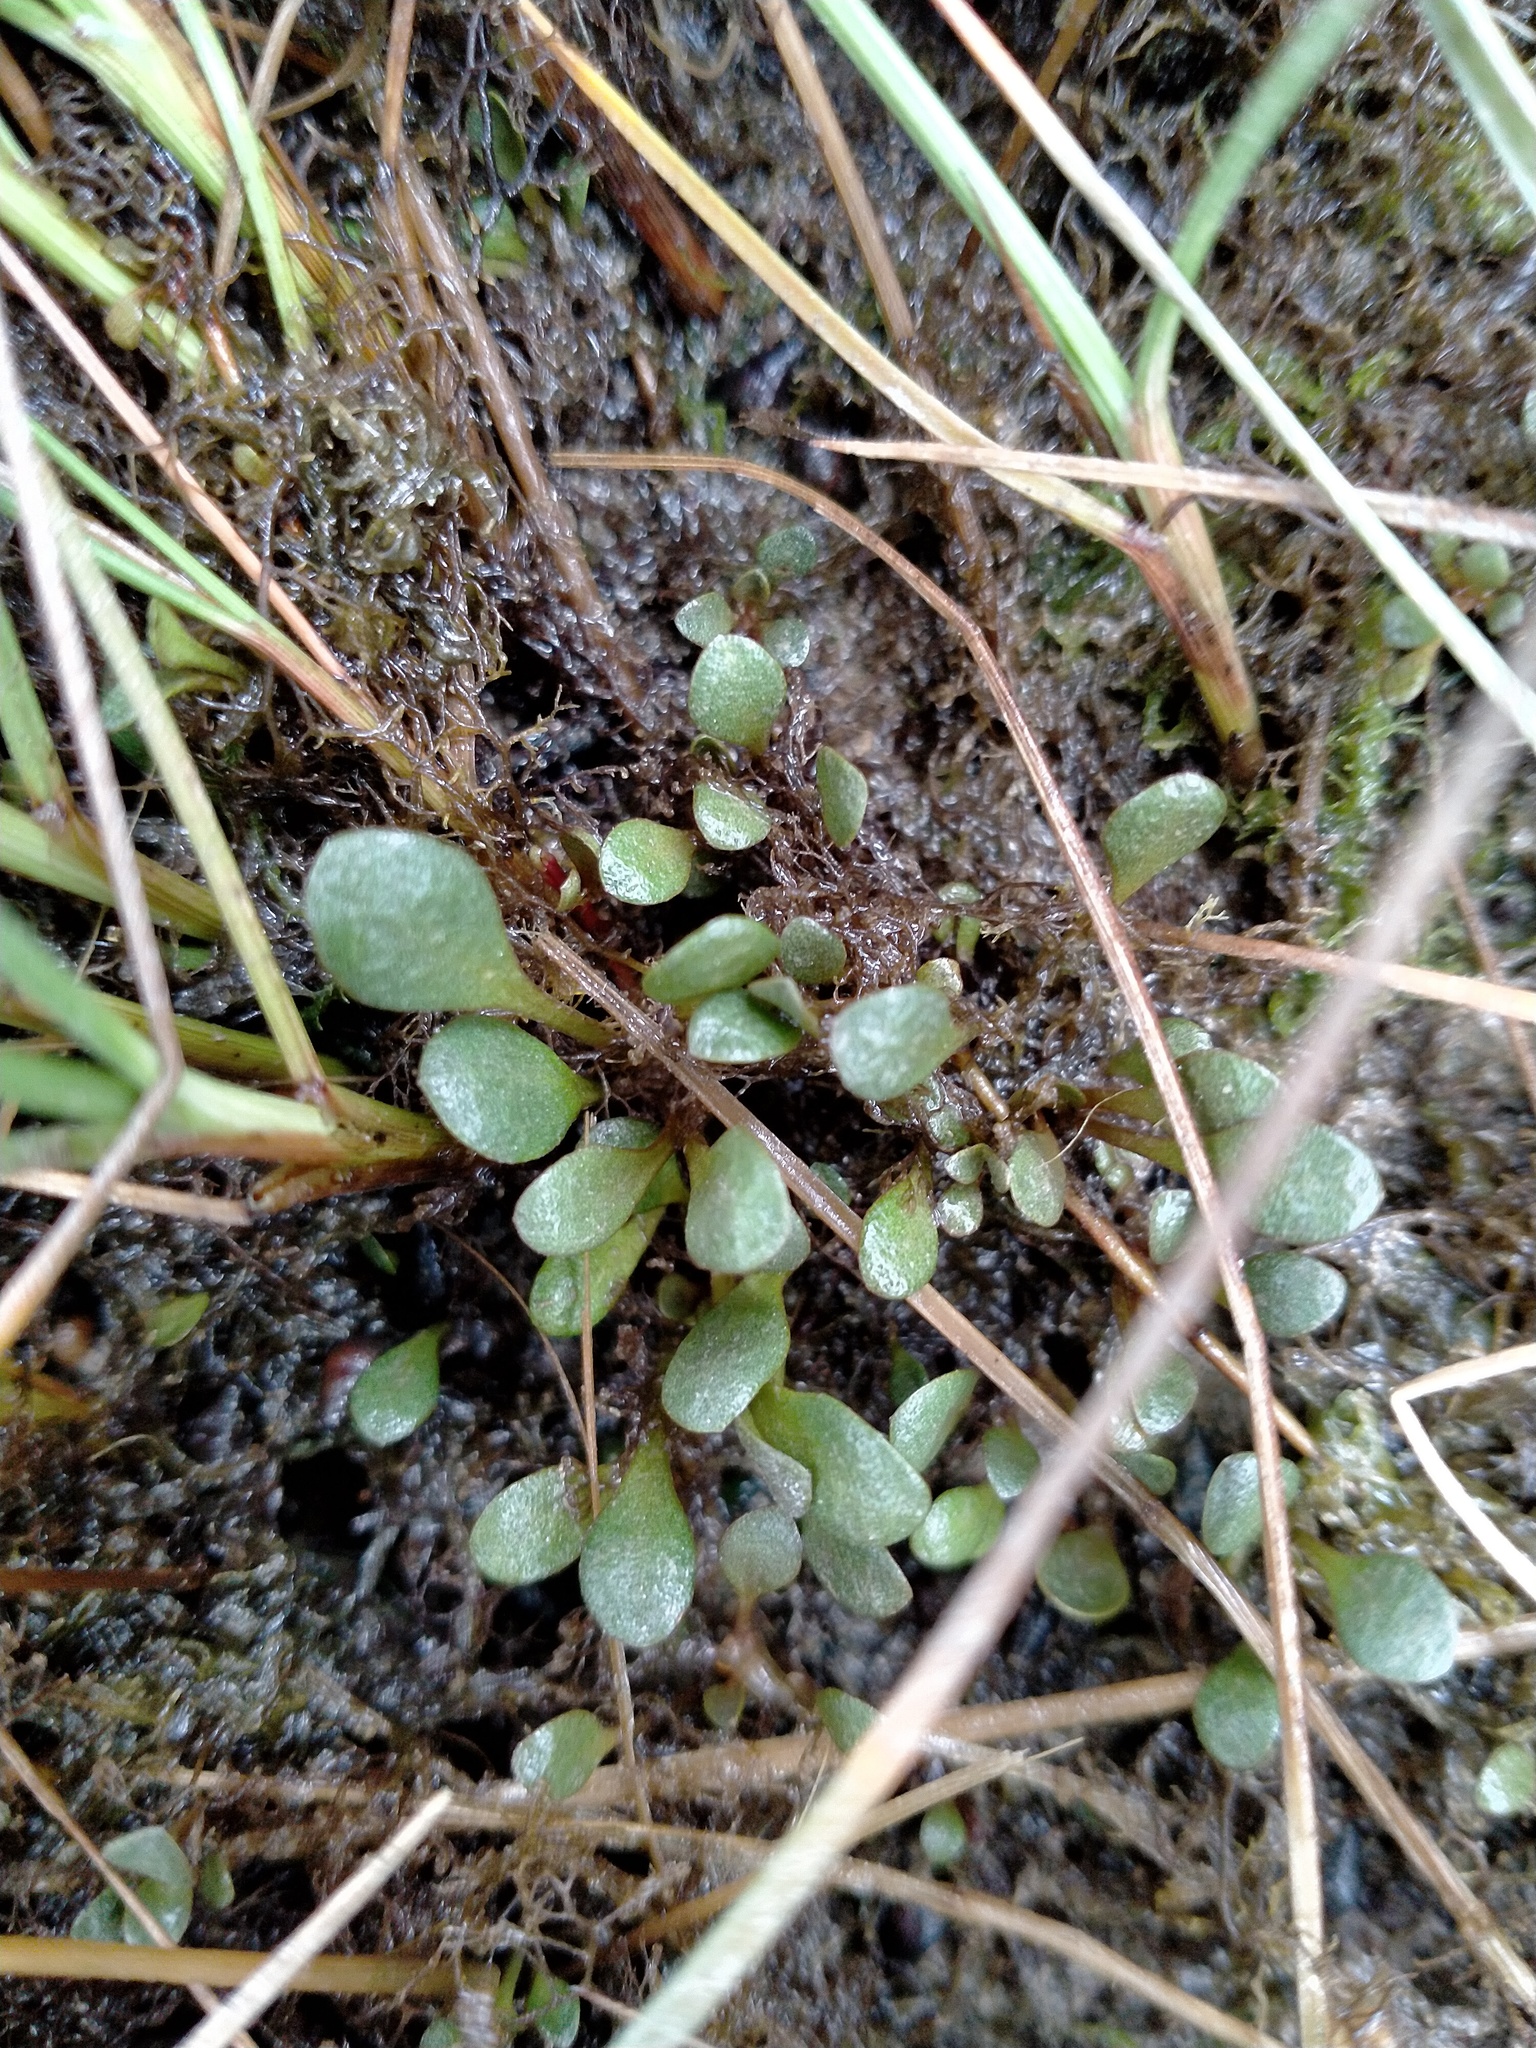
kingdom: Plantae
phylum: Tracheophyta
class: Magnoliopsida
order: Ericales
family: Primulaceae
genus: Samolus
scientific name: Samolus repens
